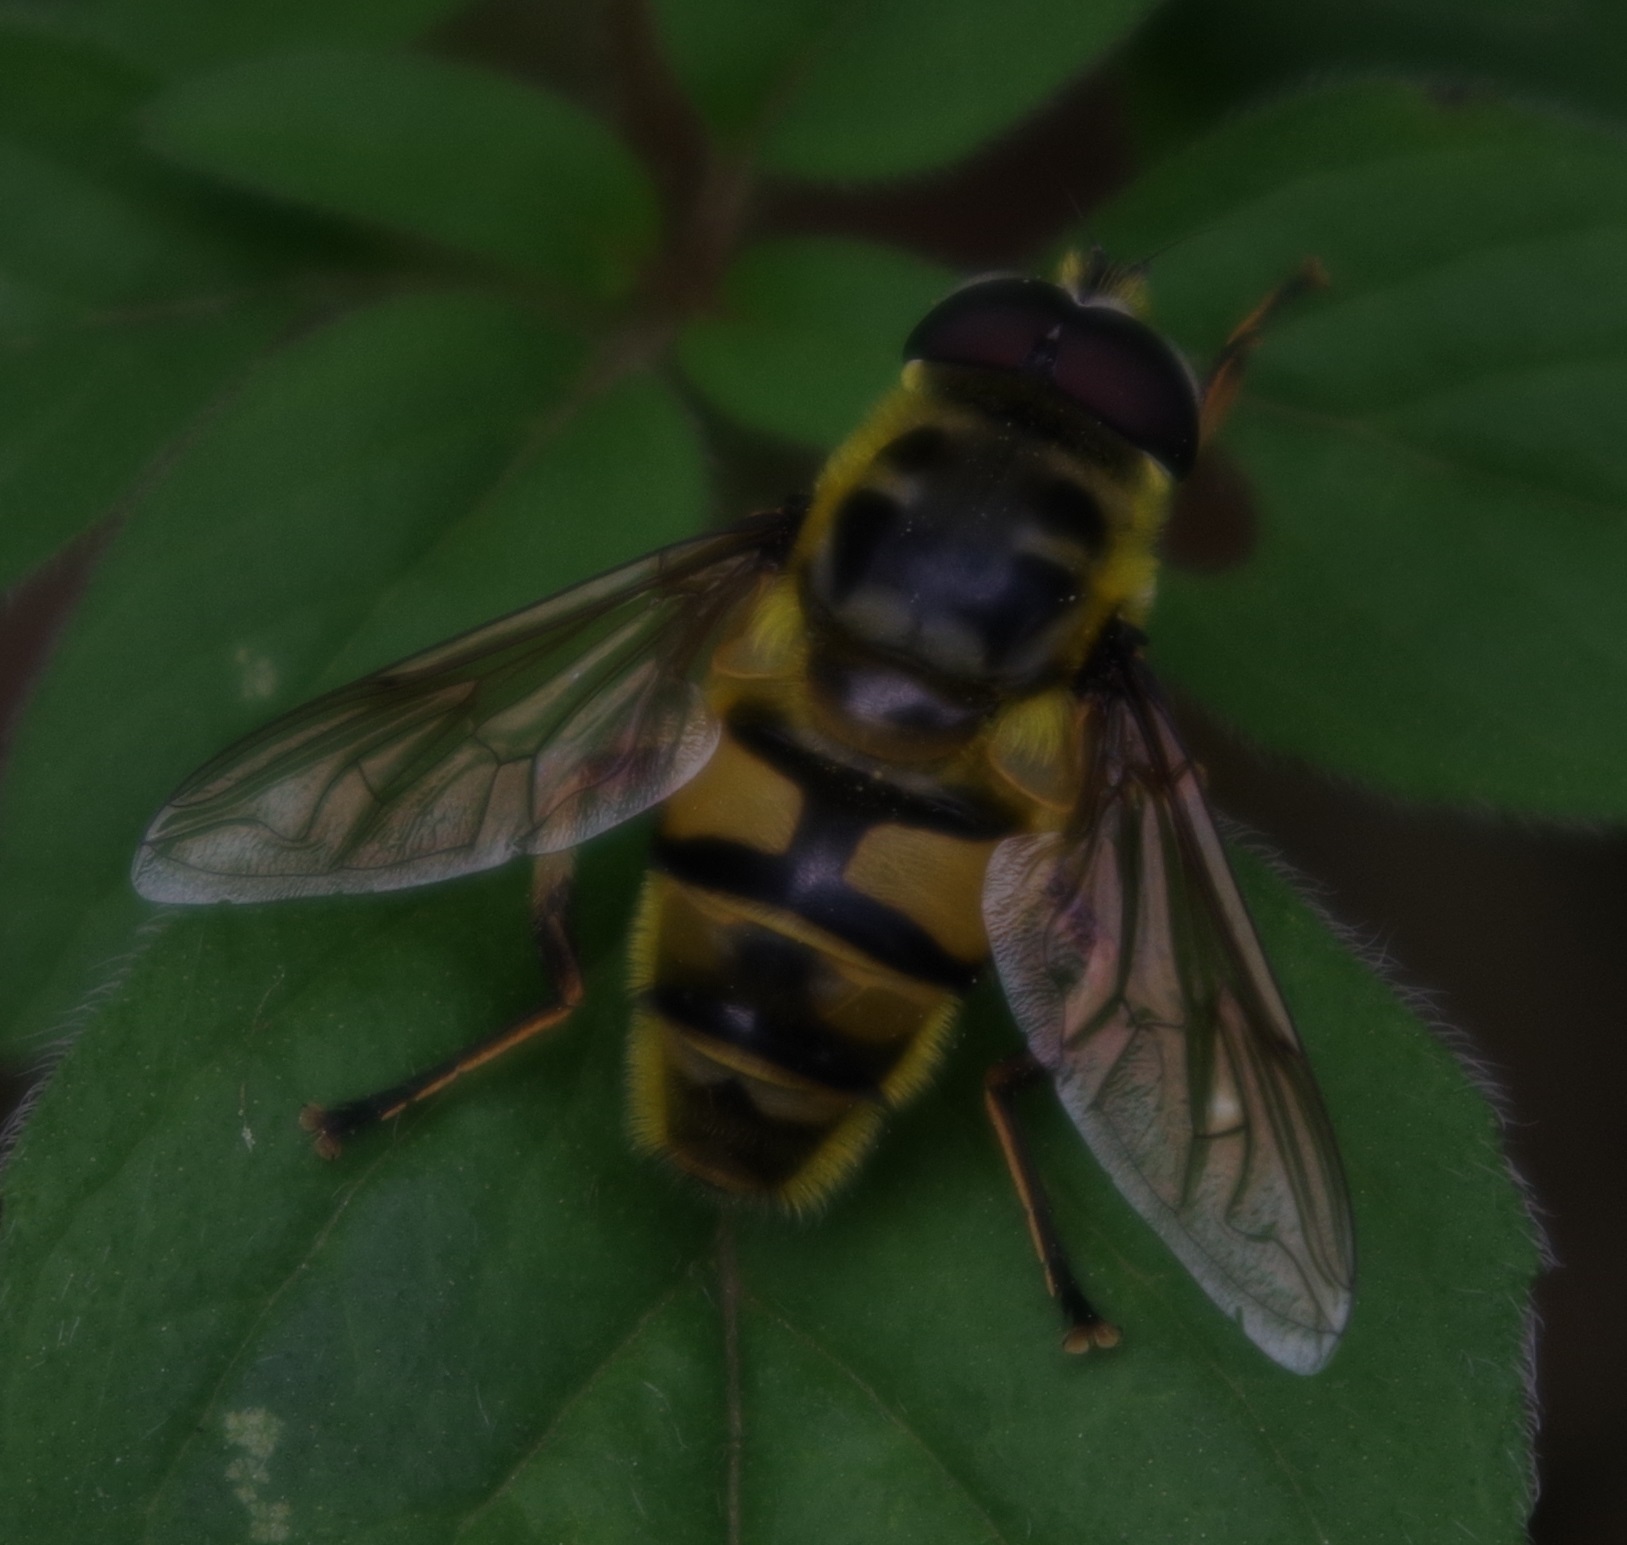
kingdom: Animalia
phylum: Arthropoda
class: Insecta
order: Diptera
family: Syrphidae
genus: Myathropa
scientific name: Myathropa florea
